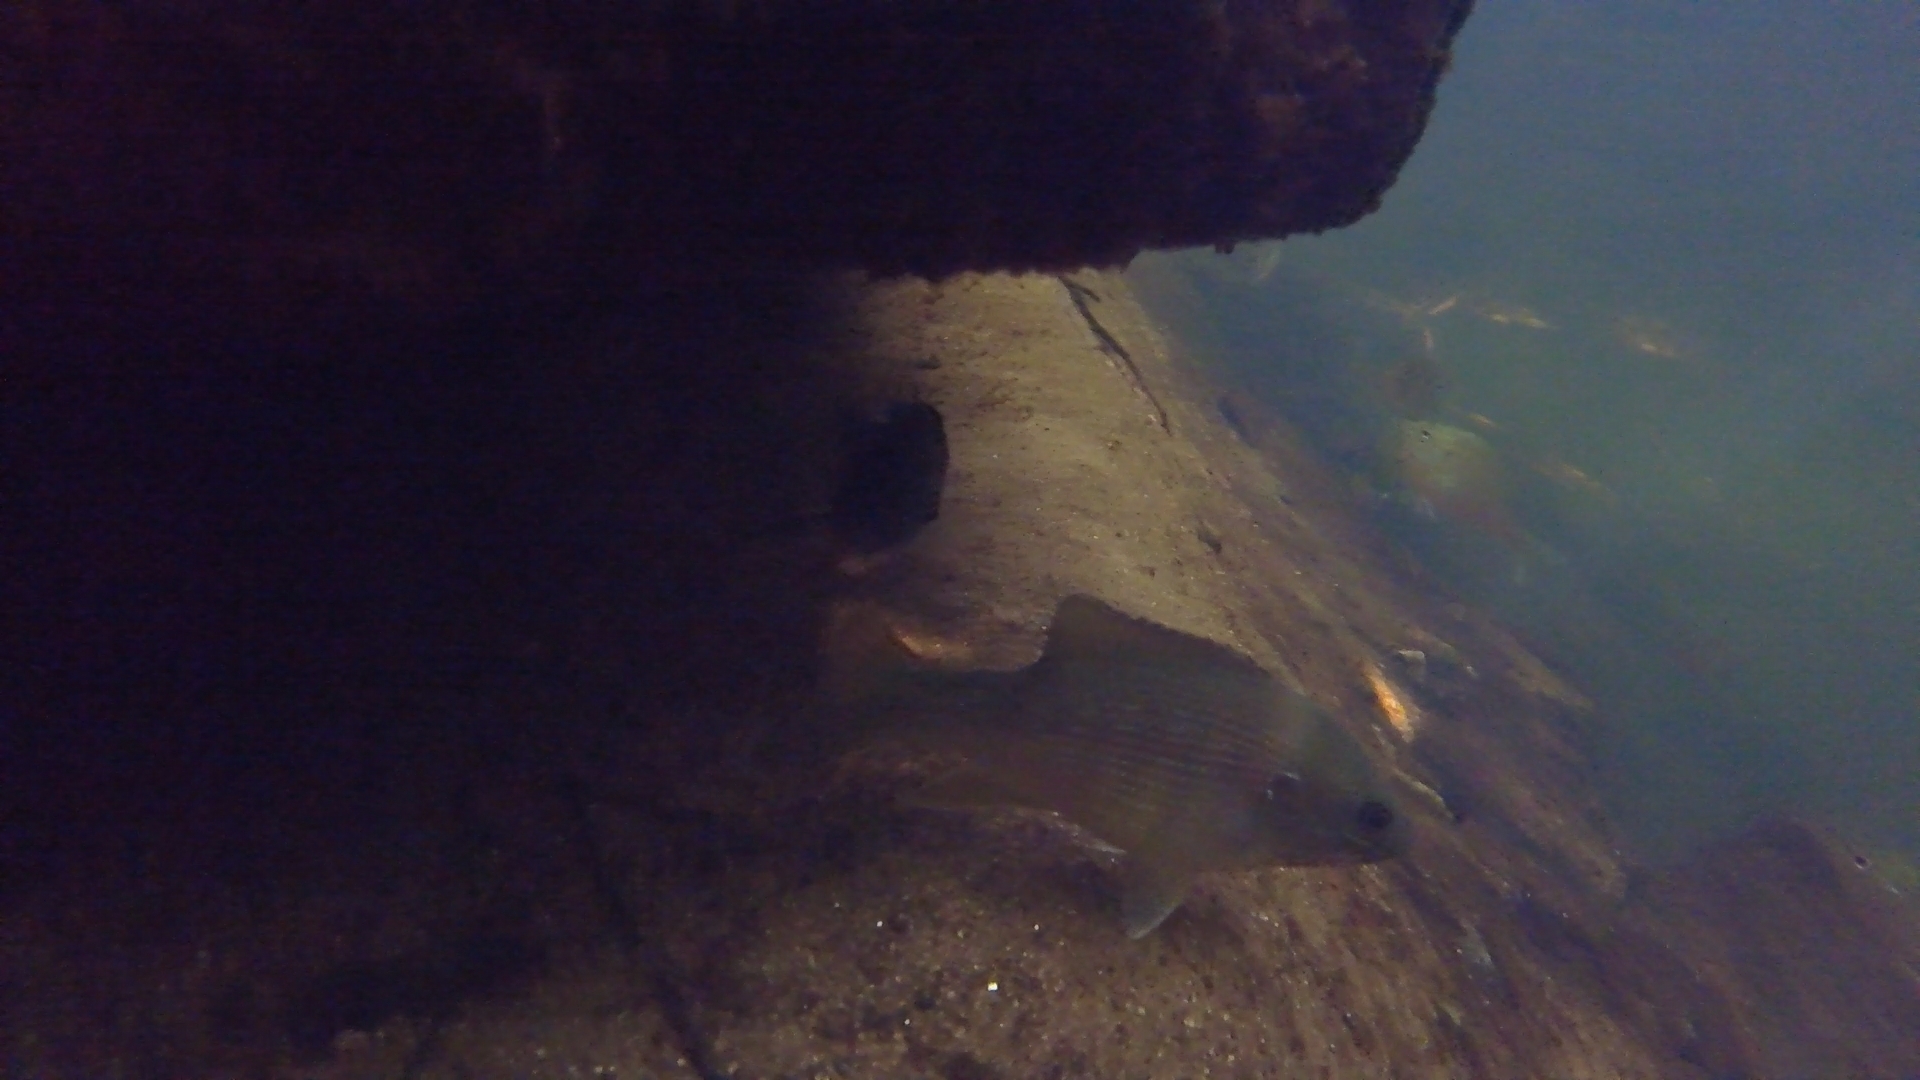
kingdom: Animalia
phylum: Chordata
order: Perciformes
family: Centrarchidae
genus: Lepomis
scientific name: Lepomis cyanellus
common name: Green sunfish
